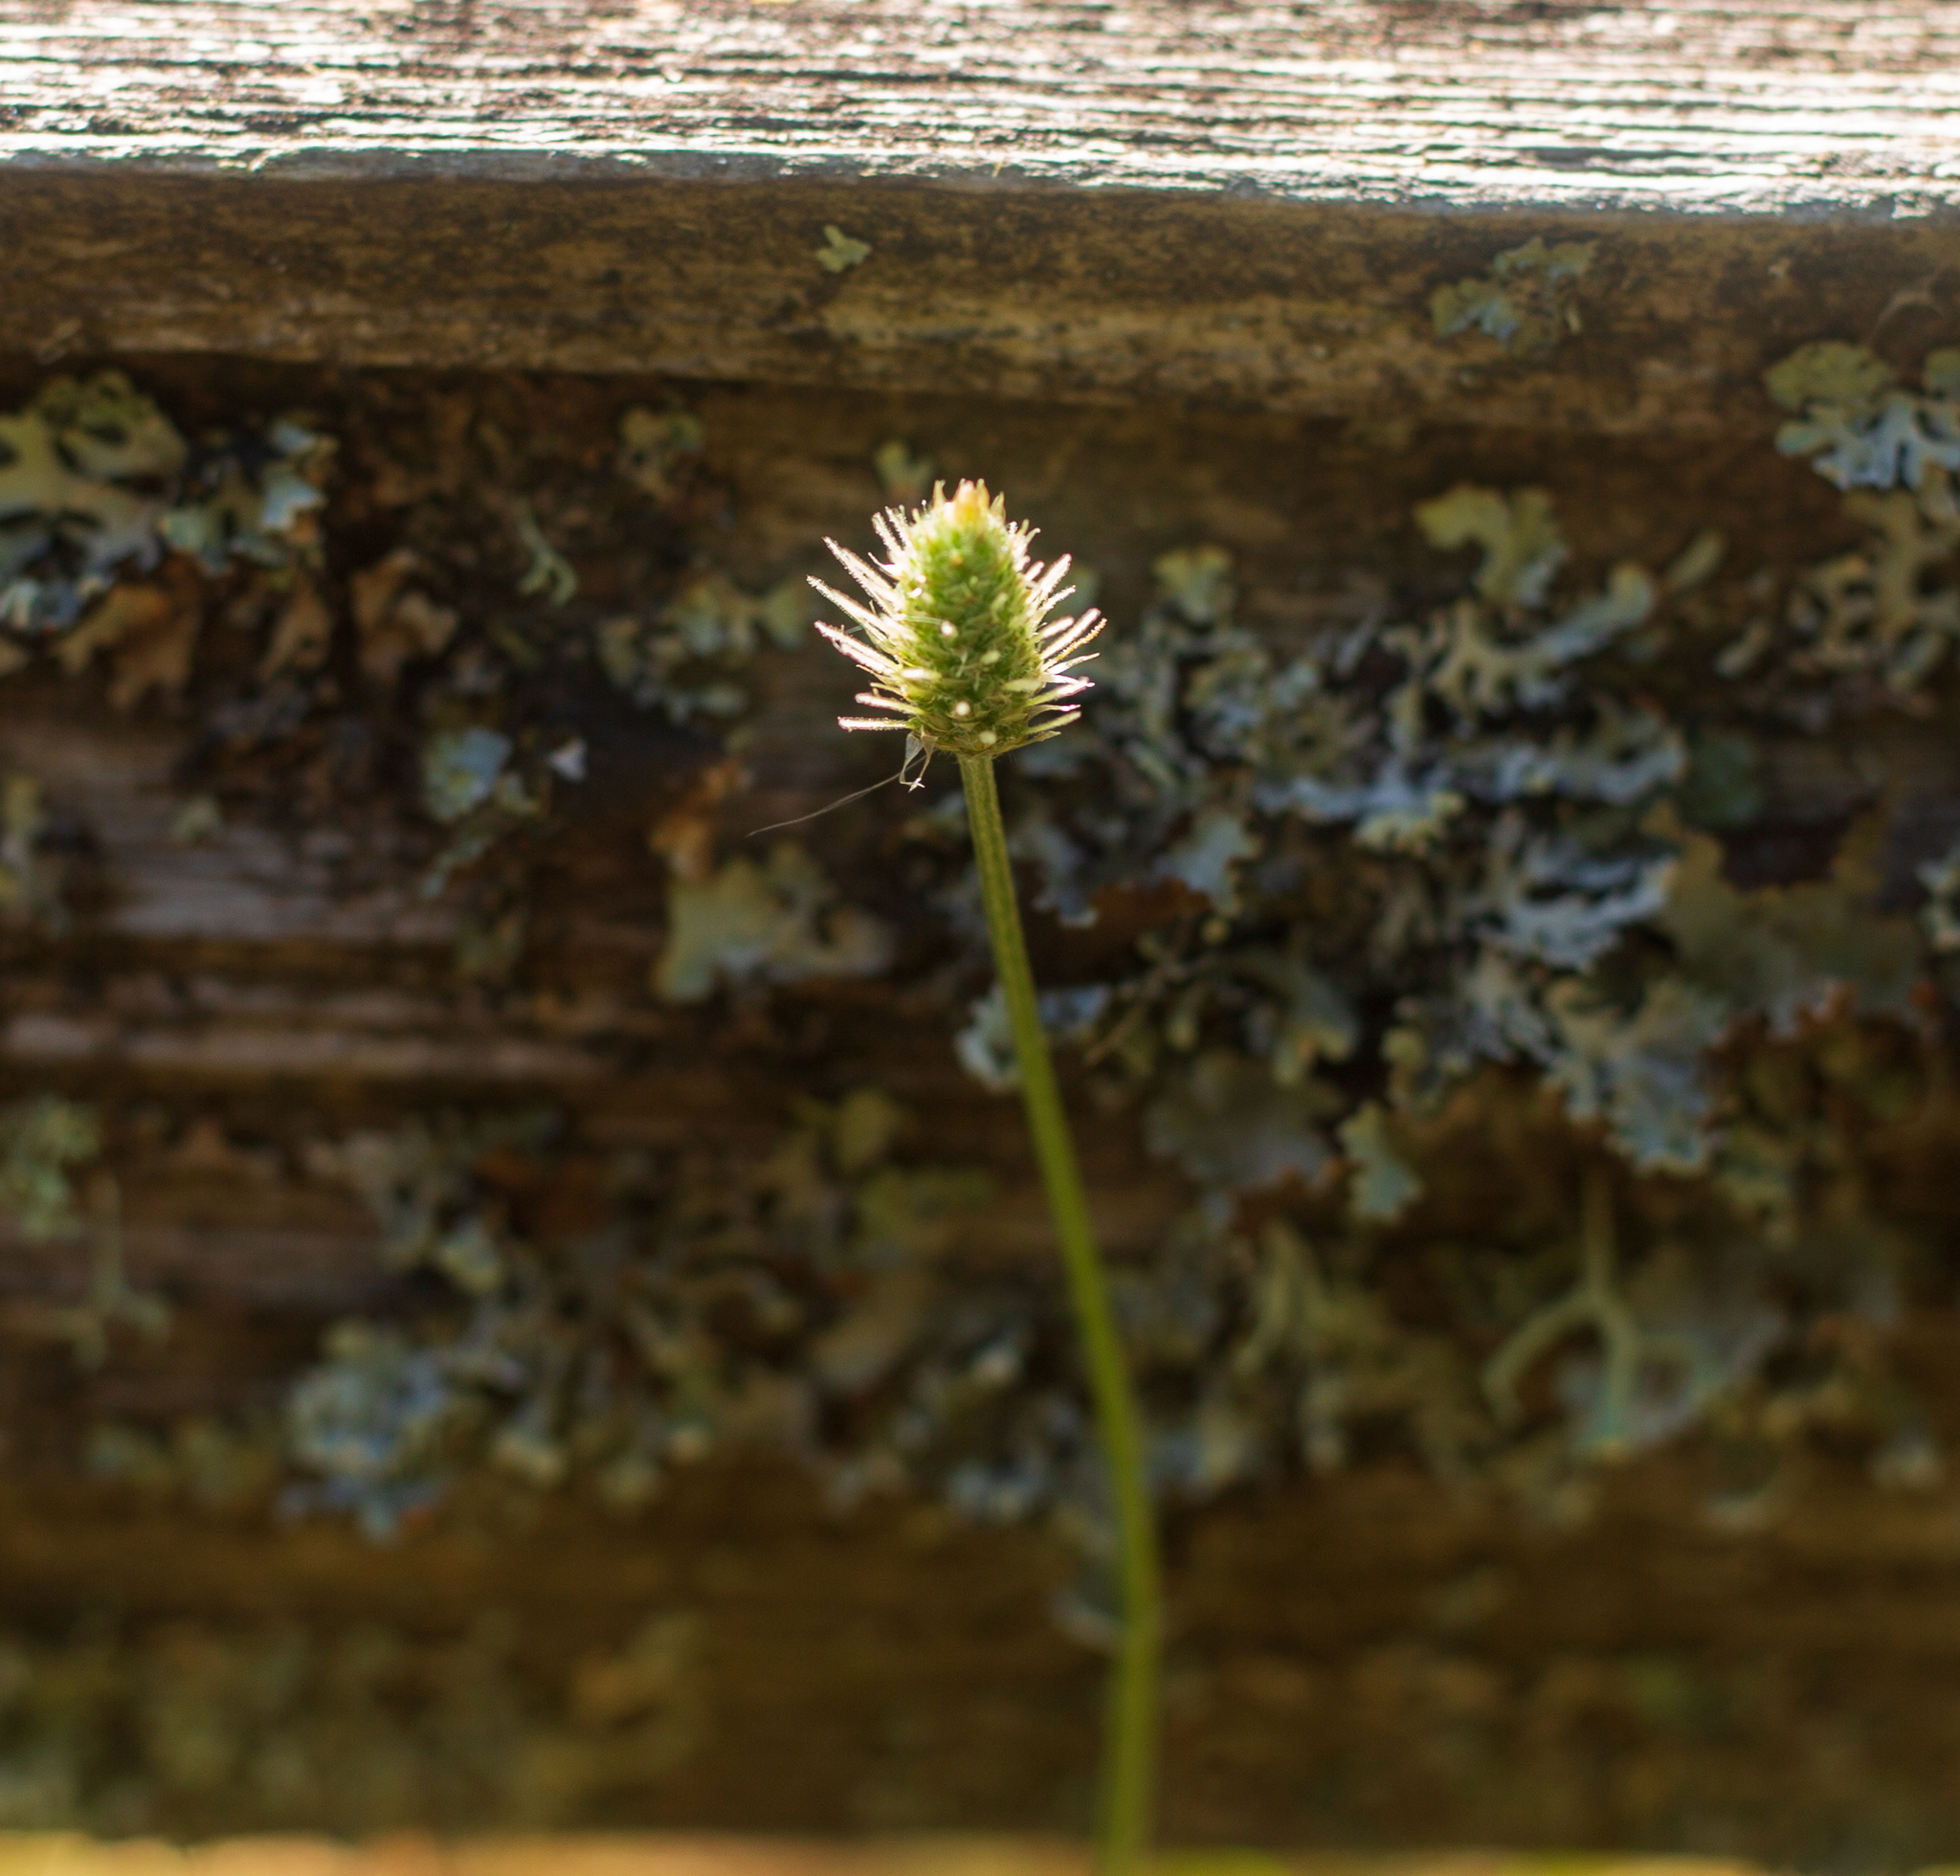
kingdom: Plantae
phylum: Tracheophyta
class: Magnoliopsida
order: Lamiales
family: Plantaginaceae
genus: Plantago
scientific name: Plantago lanceolata
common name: Ribwort plantain
